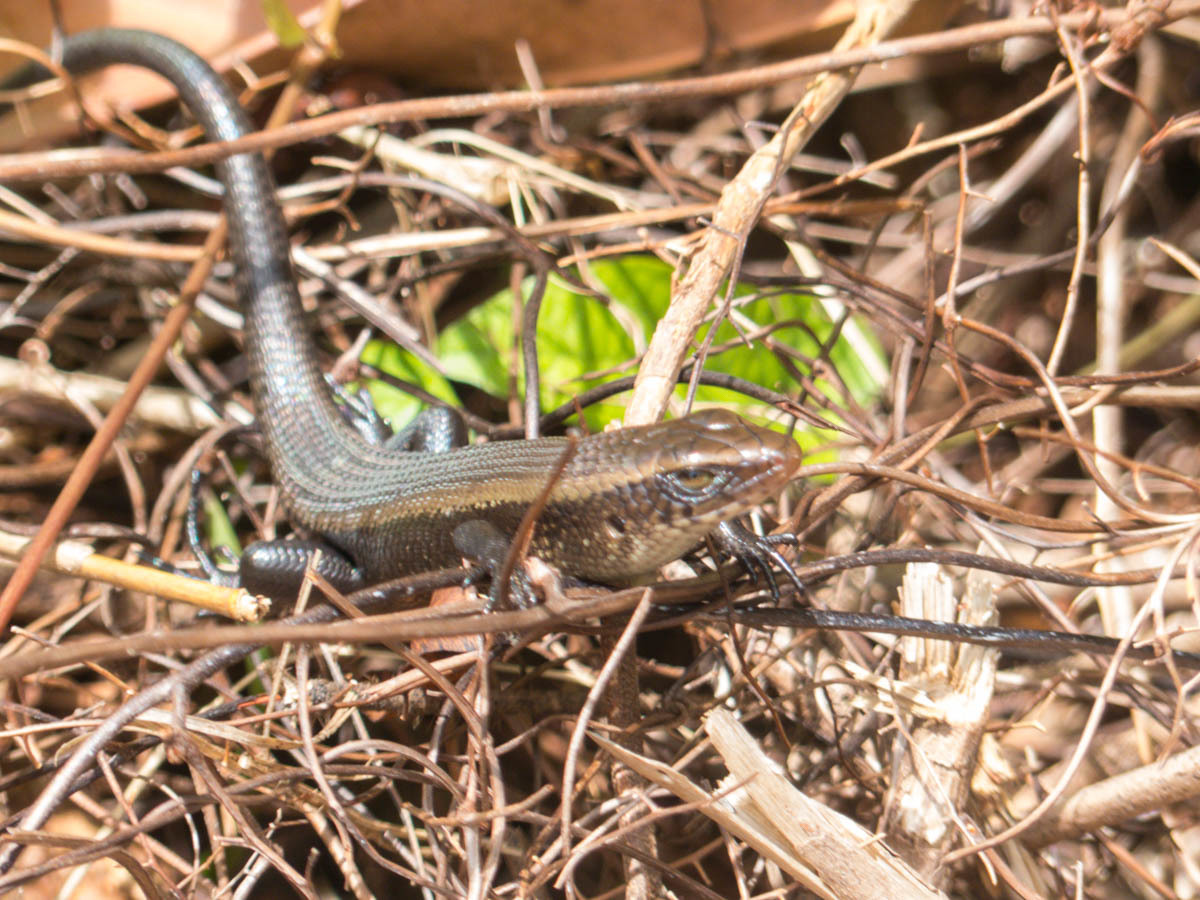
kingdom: Animalia
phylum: Chordata
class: Squamata
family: Scincidae
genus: Eutropis
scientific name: Eutropis multifasciata
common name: Common mabuya
